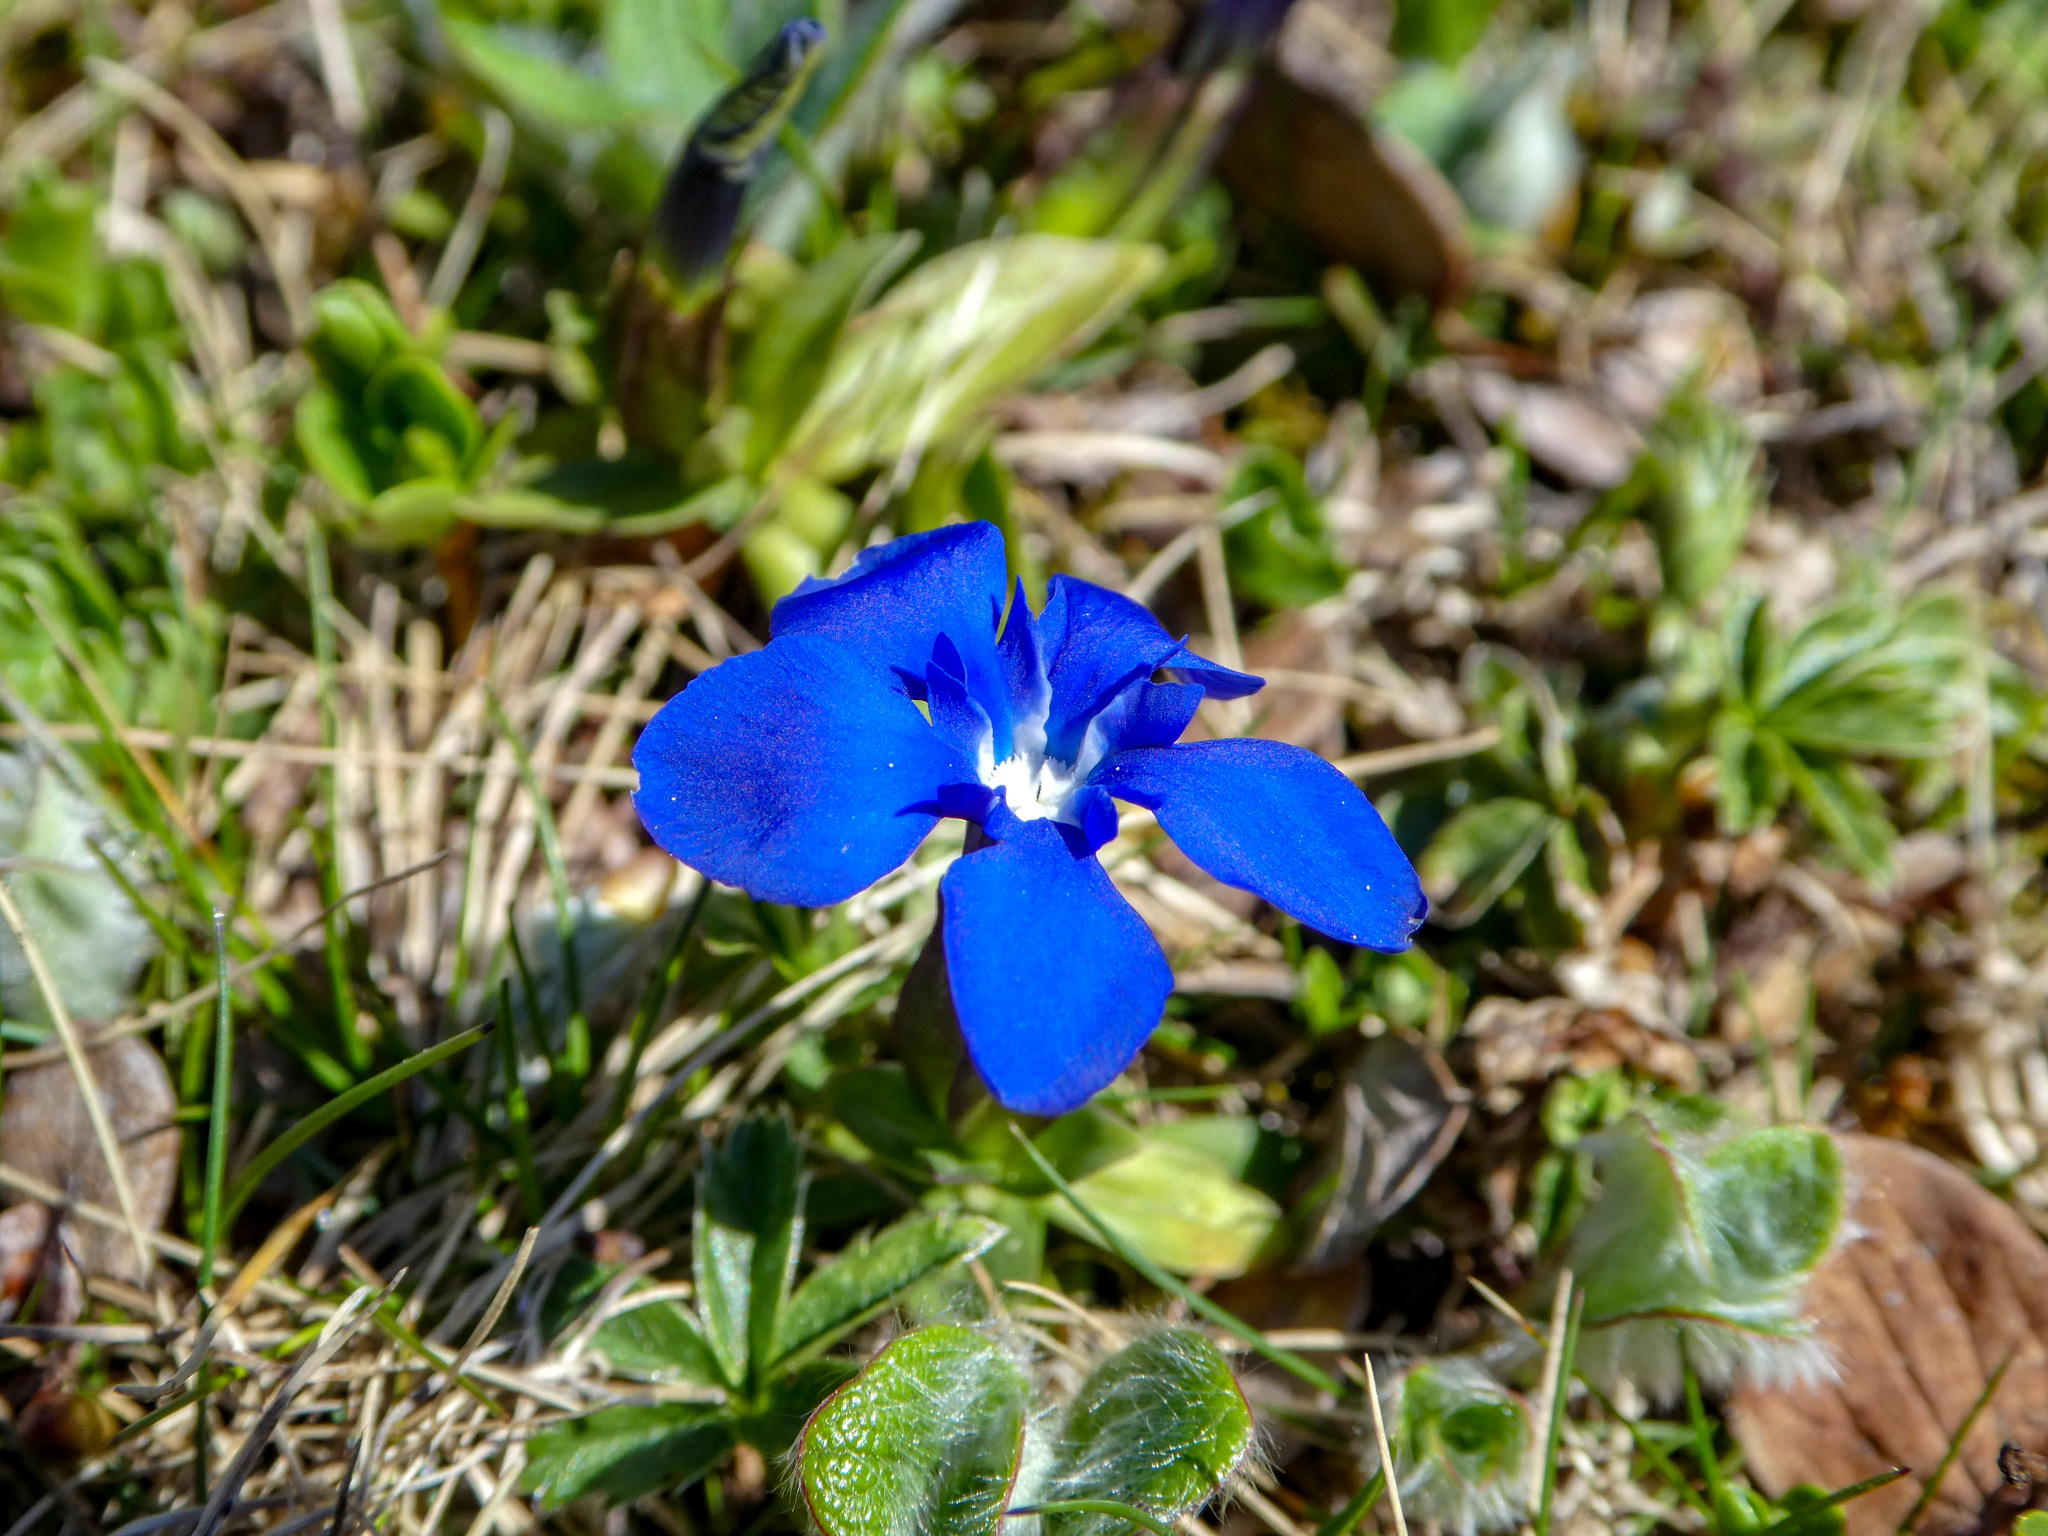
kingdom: Plantae
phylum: Tracheophyta
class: Magnoliopsida
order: Gentianales
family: Gentianaceae
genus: Gentiana
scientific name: Gentiana verna
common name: Spring gentian
